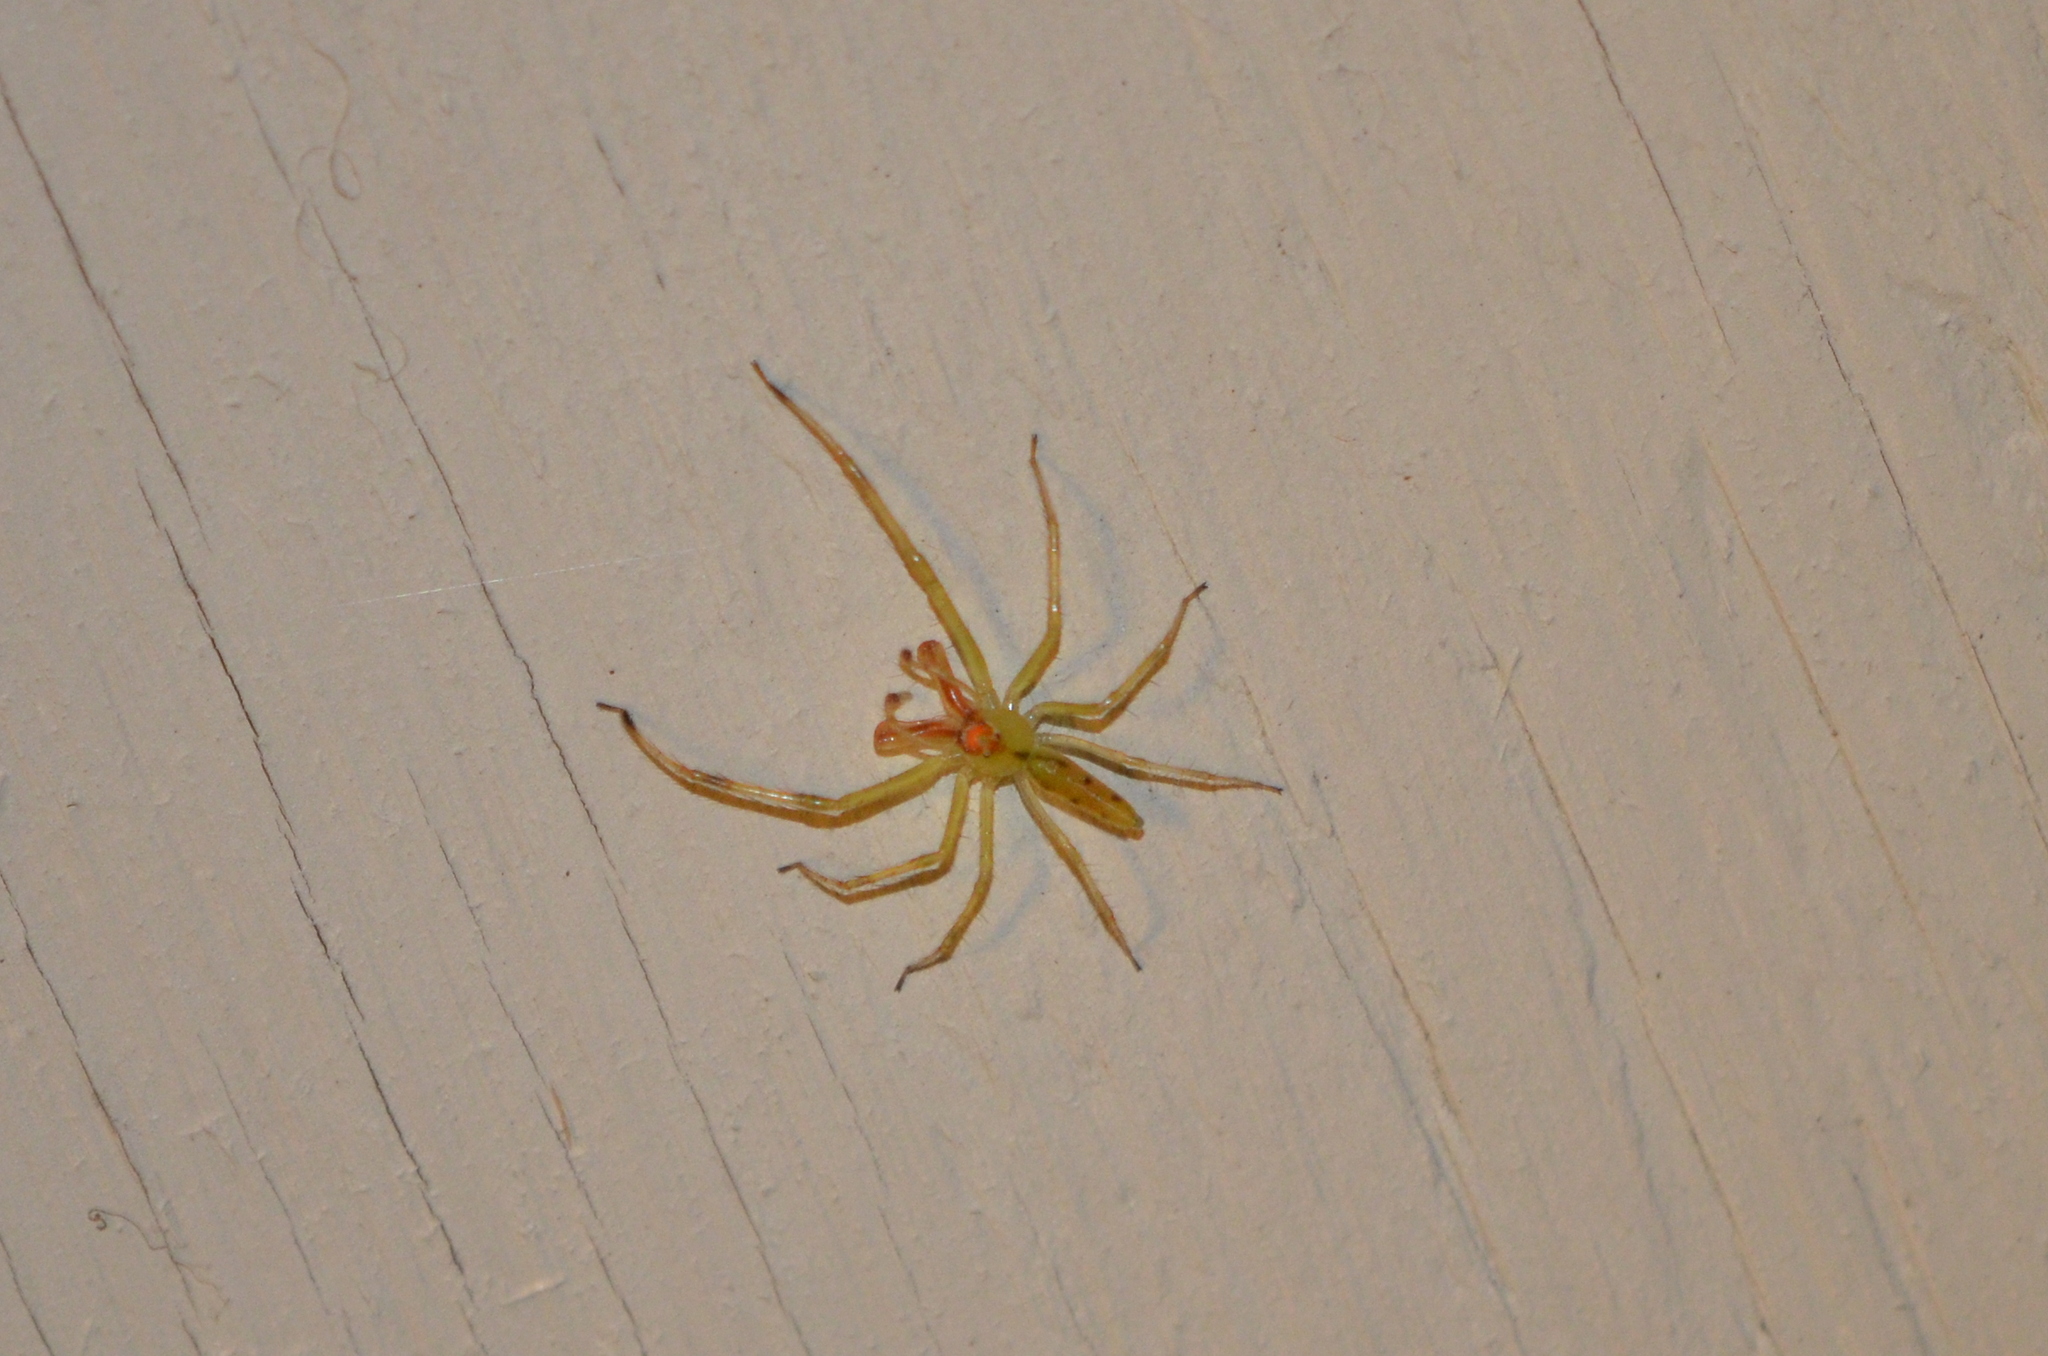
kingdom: Animalia
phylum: Arthropoda
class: Arachnida
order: Araneae
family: Salticidae
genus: Lyssomanes
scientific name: Lyssomanes viridis
